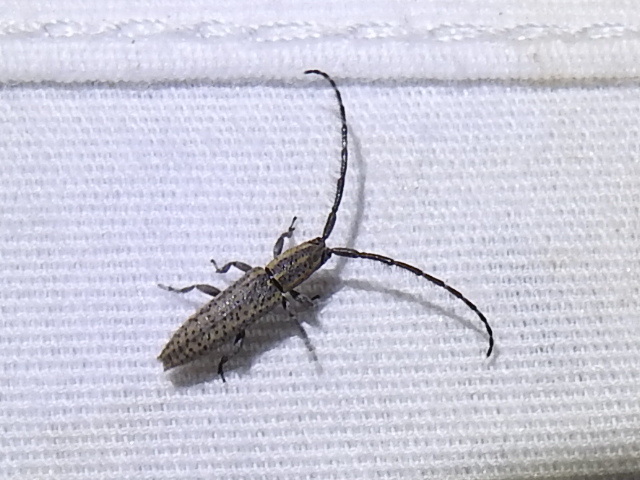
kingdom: Animalia
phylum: Arthropoda
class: Insecta
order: Coleoptera
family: Cerambycidae
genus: Dorcasta
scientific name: Dorcasta cinerea
